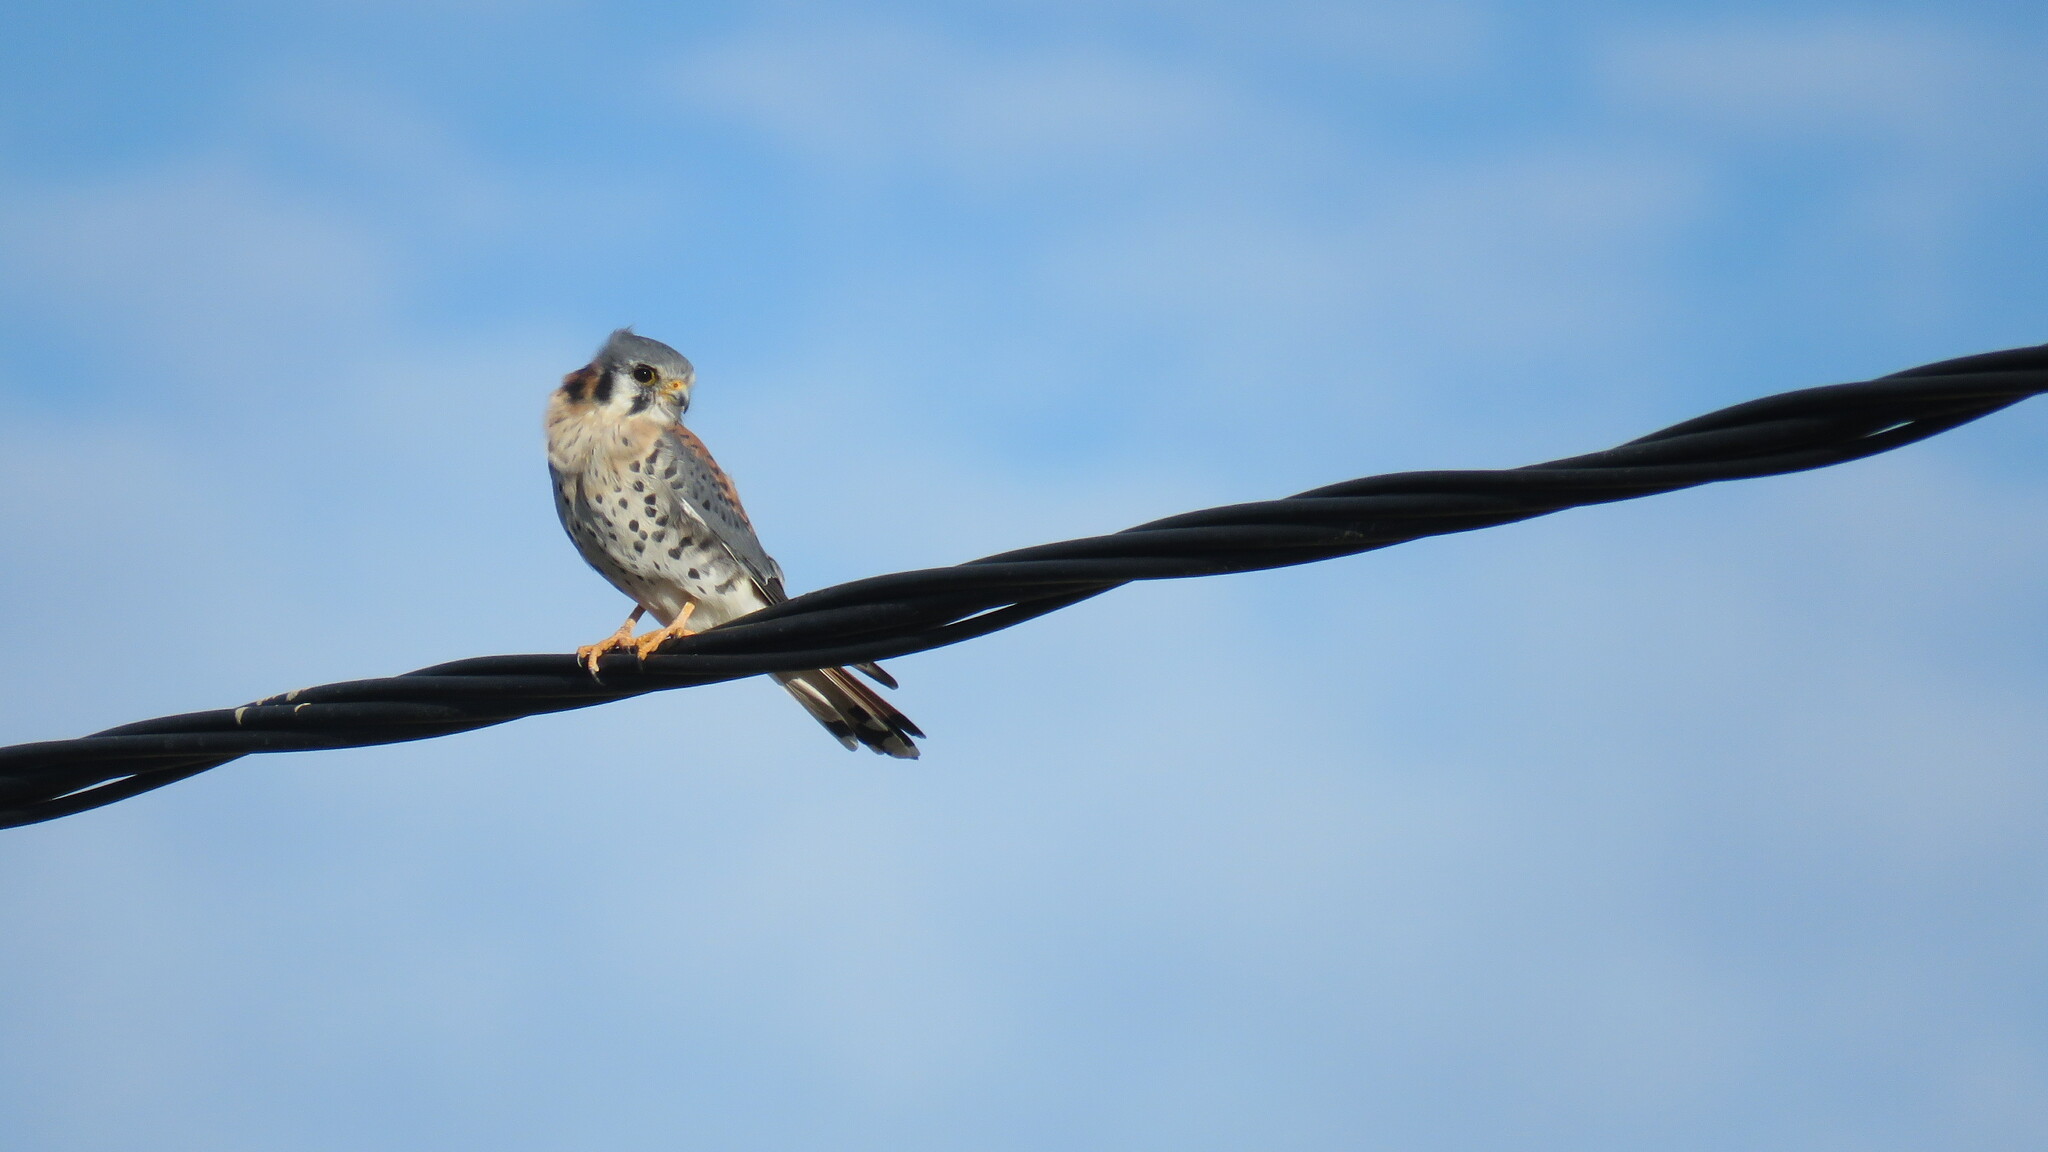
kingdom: Animalia
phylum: Chordata
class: Aves
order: Falconiformes
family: Falconidae
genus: Falco
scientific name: Falco sparverius
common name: American kestrel
